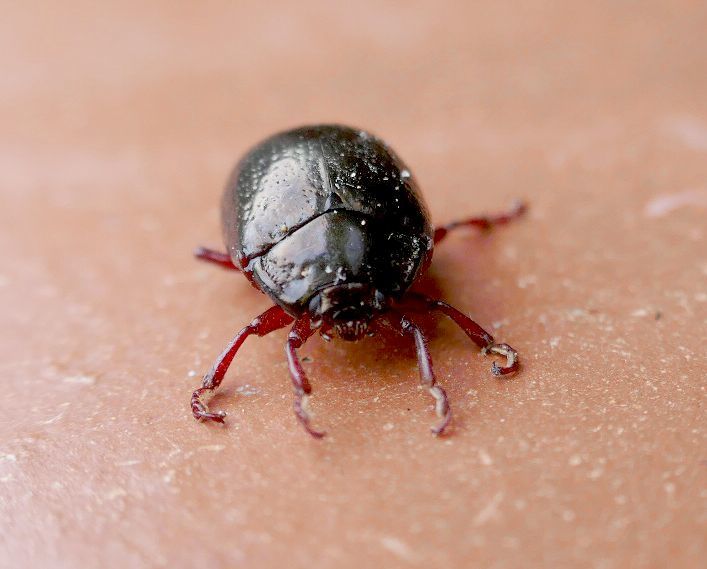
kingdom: Animalia
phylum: Arthropoda
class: Insecta
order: Coleoptera
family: Chrysomelidae
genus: Chrysolina
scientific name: Chrysolina bankii
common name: Leaf beetle
